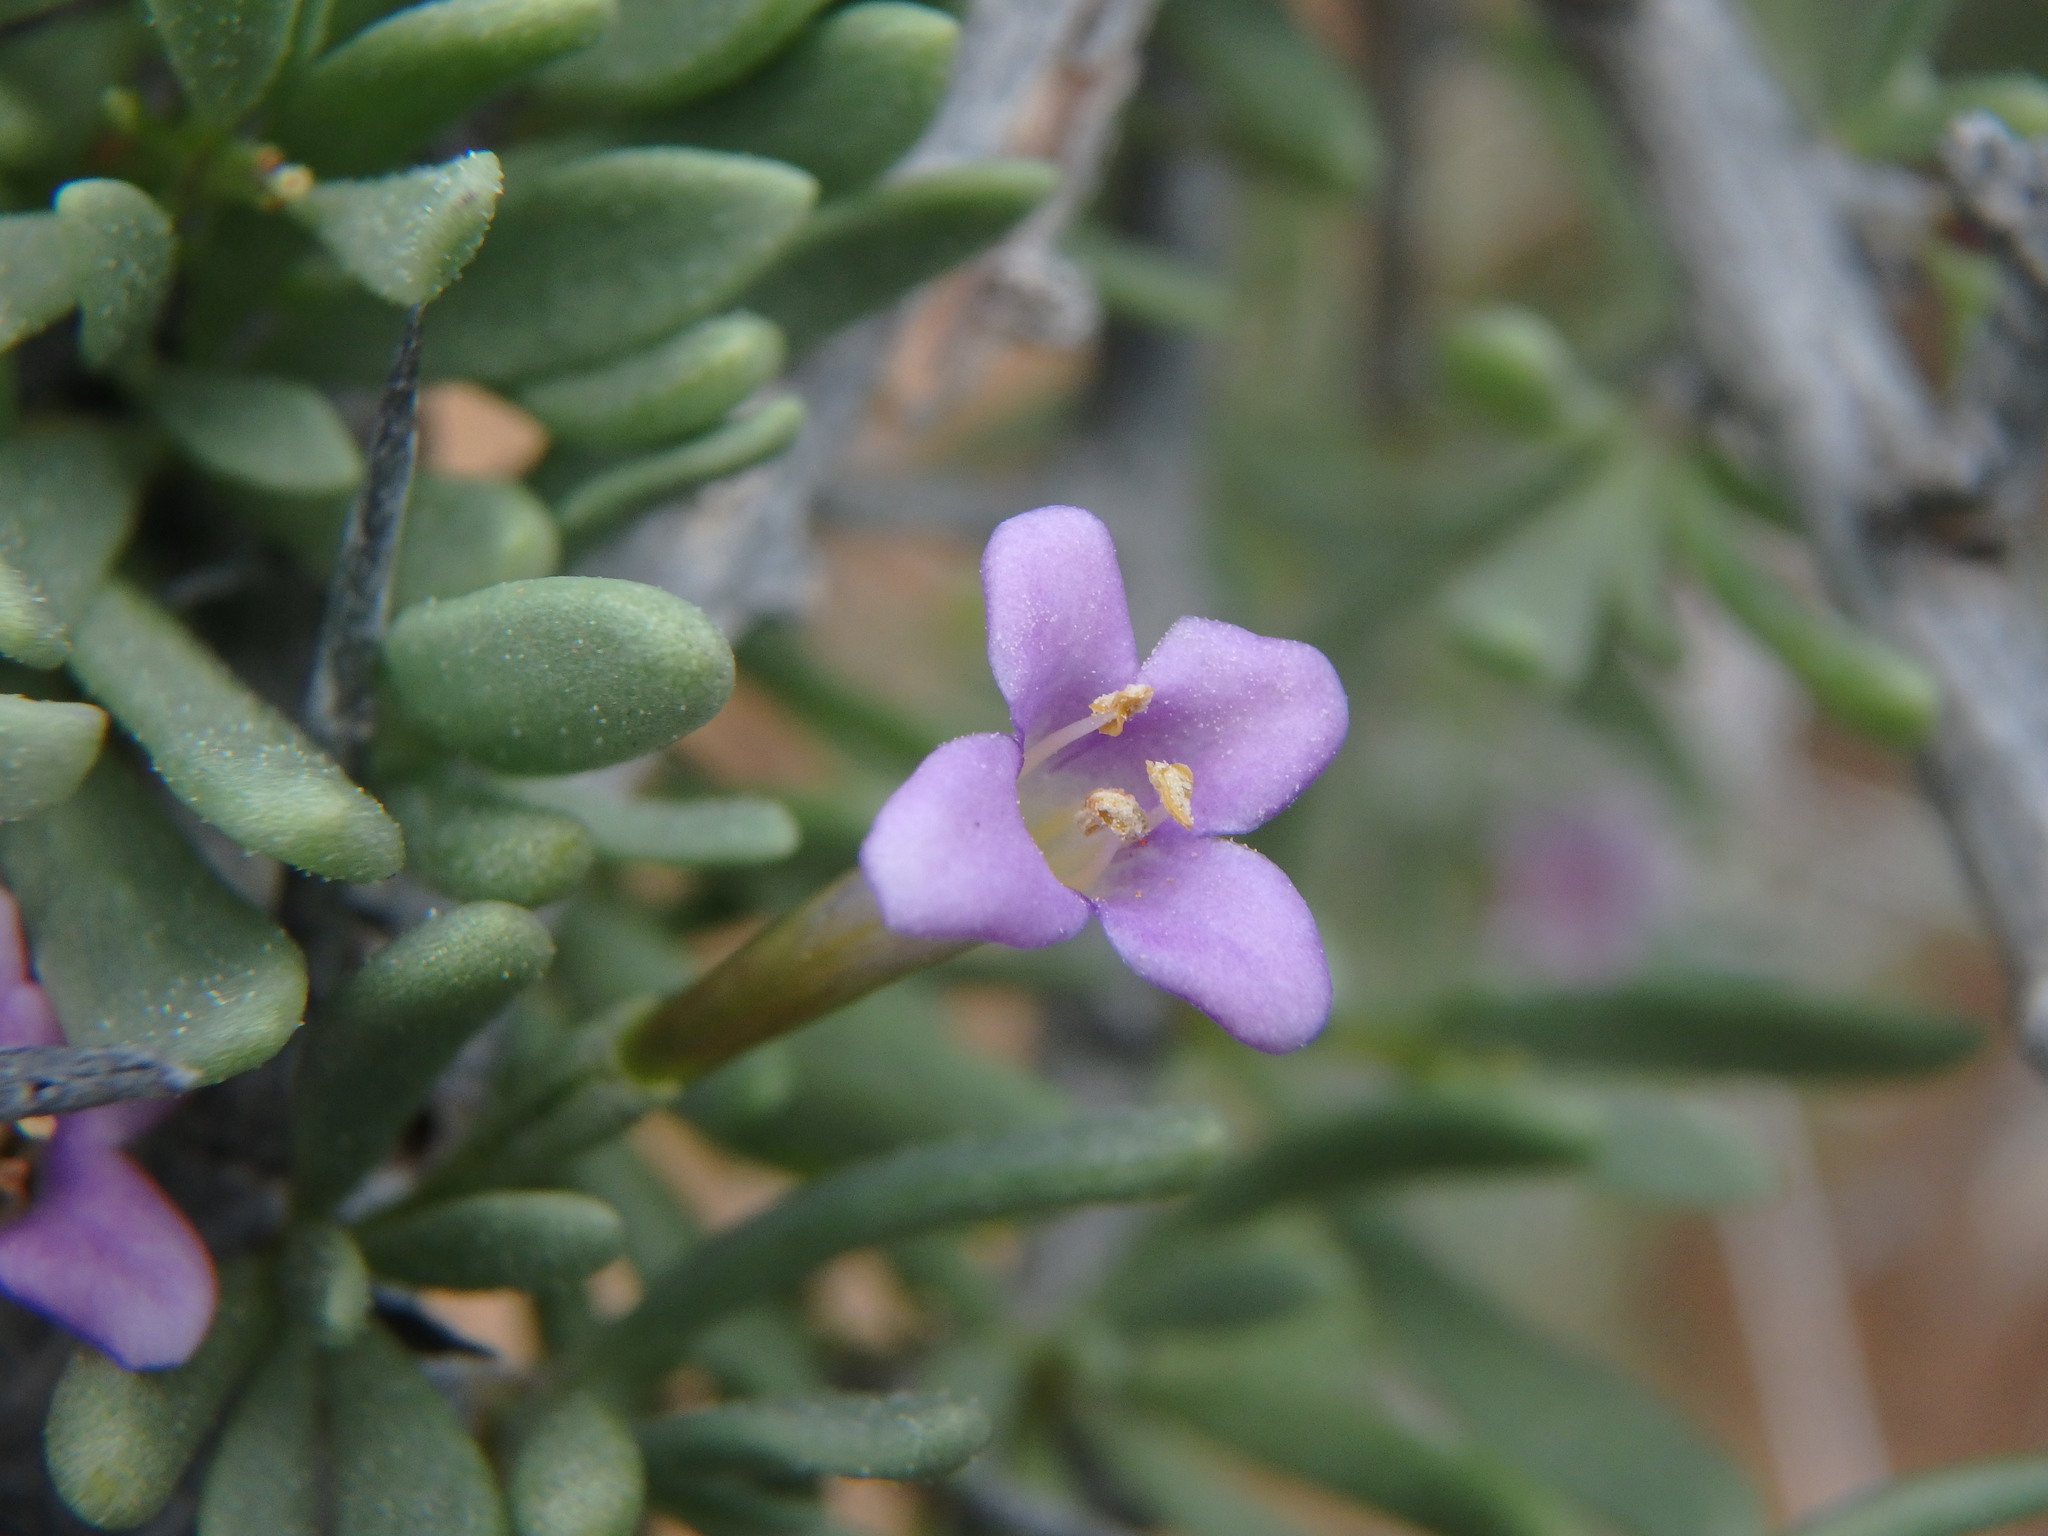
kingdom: Plantae
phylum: Tracheophyta
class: Magnoliopsida
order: Solanales
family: Solanaceae
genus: Lycium
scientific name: Lycium intricatum
